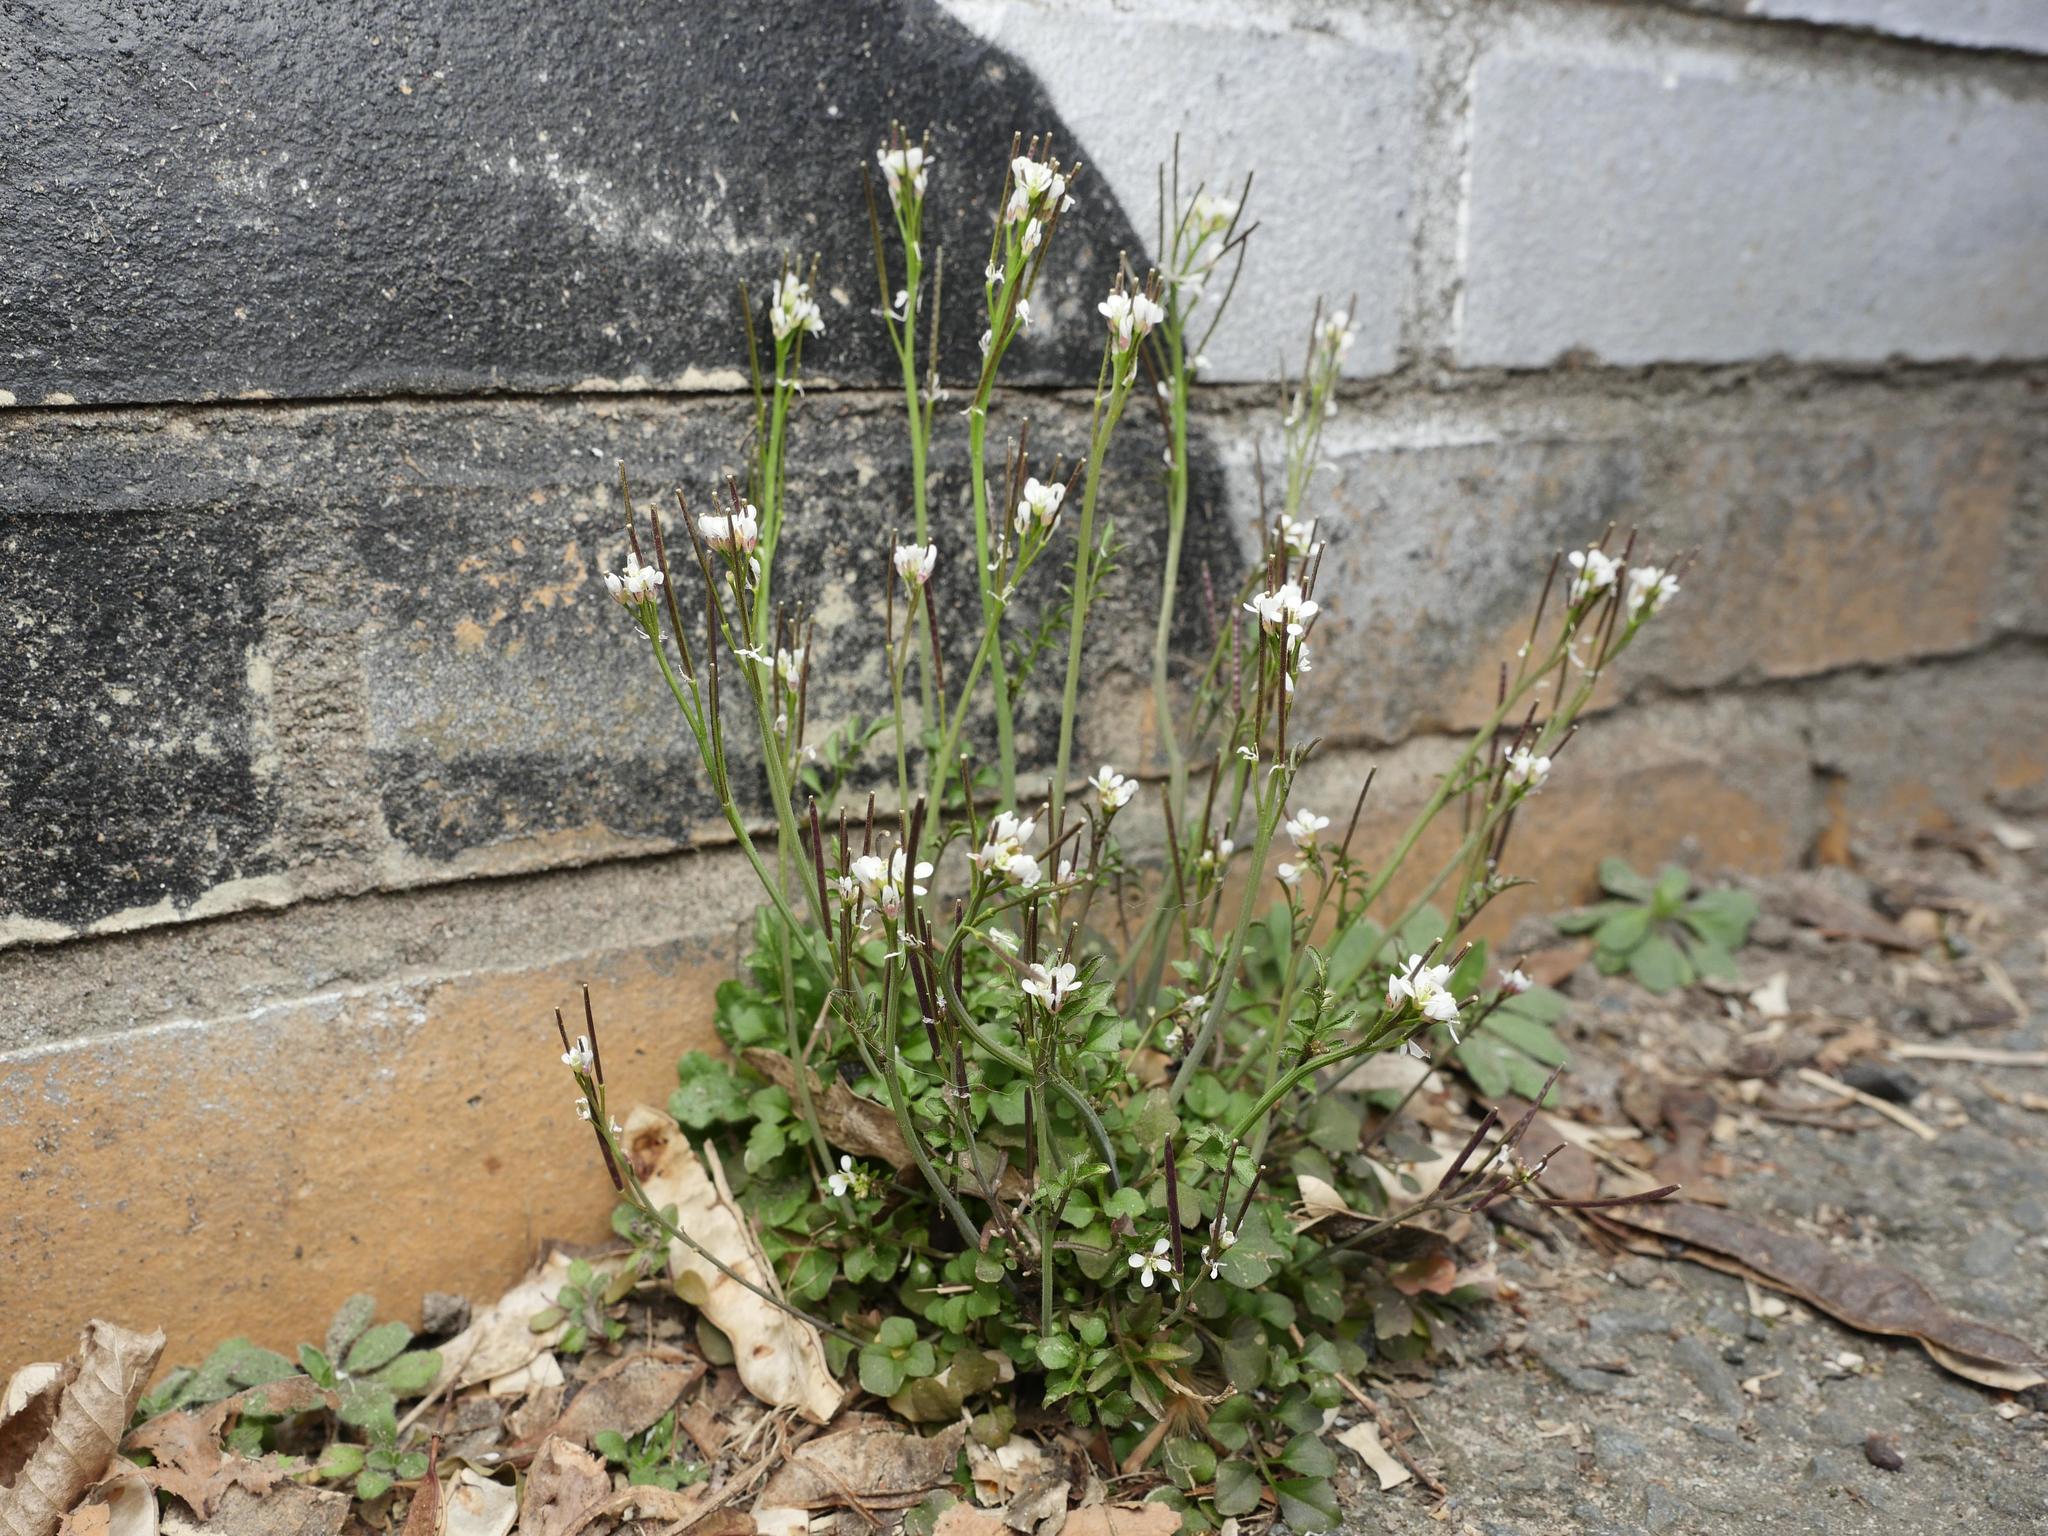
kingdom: Plantae
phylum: Tracheophyta
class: Magnoliopsida
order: Brassicales
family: Brassicaceae
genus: Cardamine
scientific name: Cardamine hirsuta
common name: Hairy bittercress
